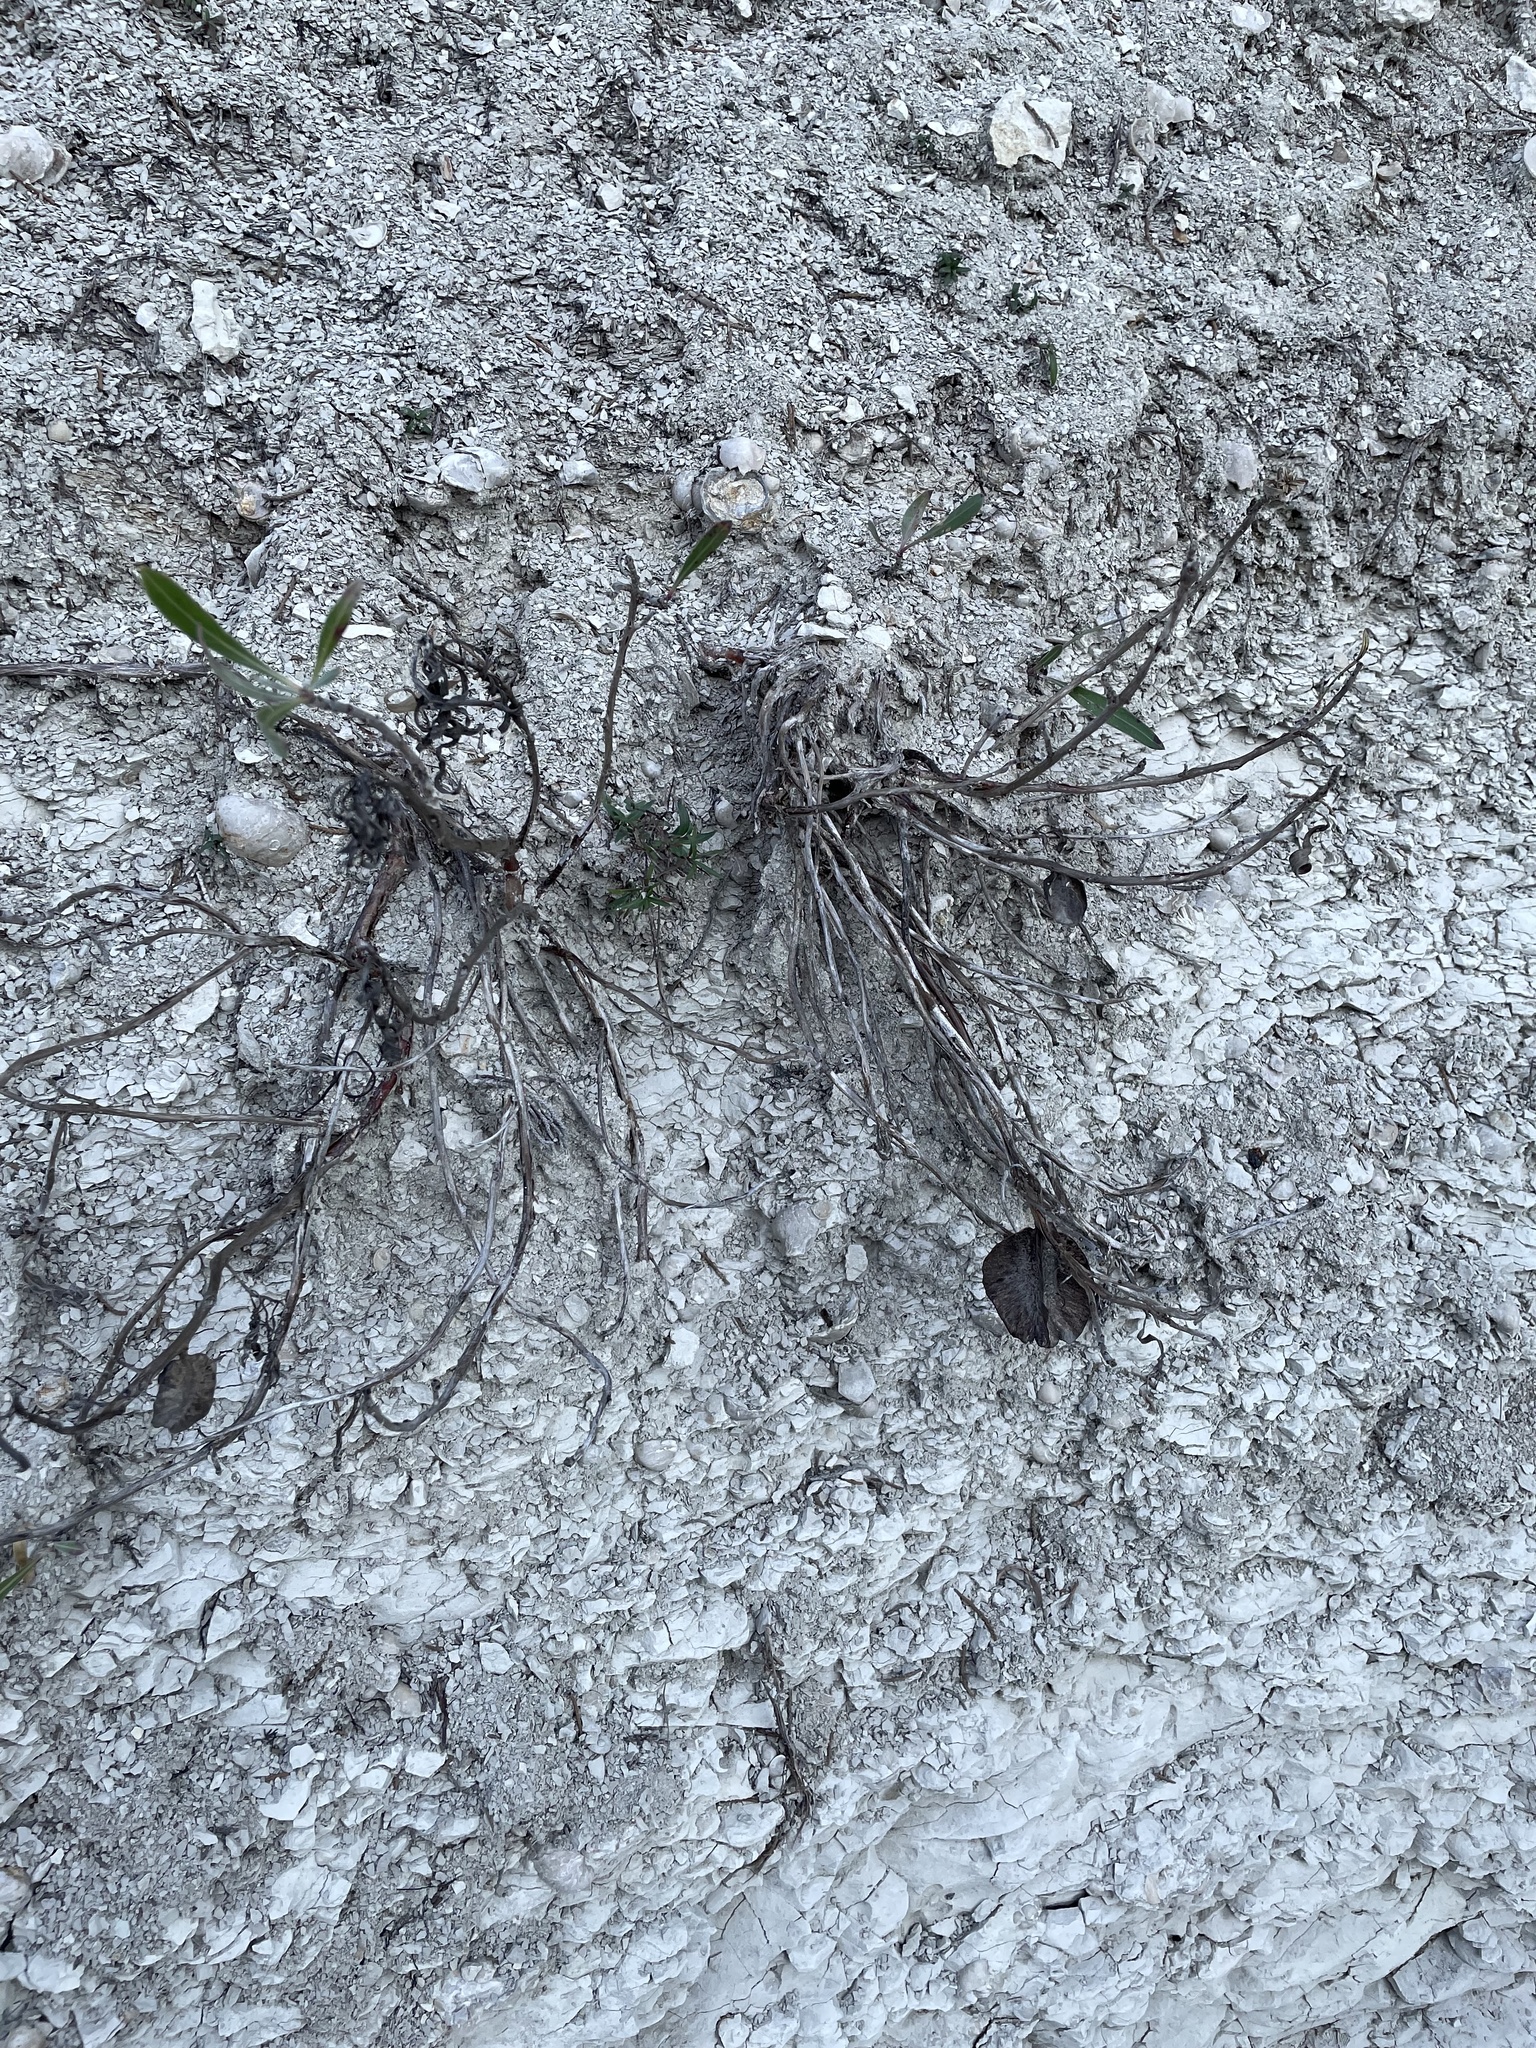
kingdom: Plantae
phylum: Tracheophyta
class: Magnoliopsida
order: Myrtales
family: Onagraceae
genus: Oenothera
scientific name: Oenothera macrocarpa
